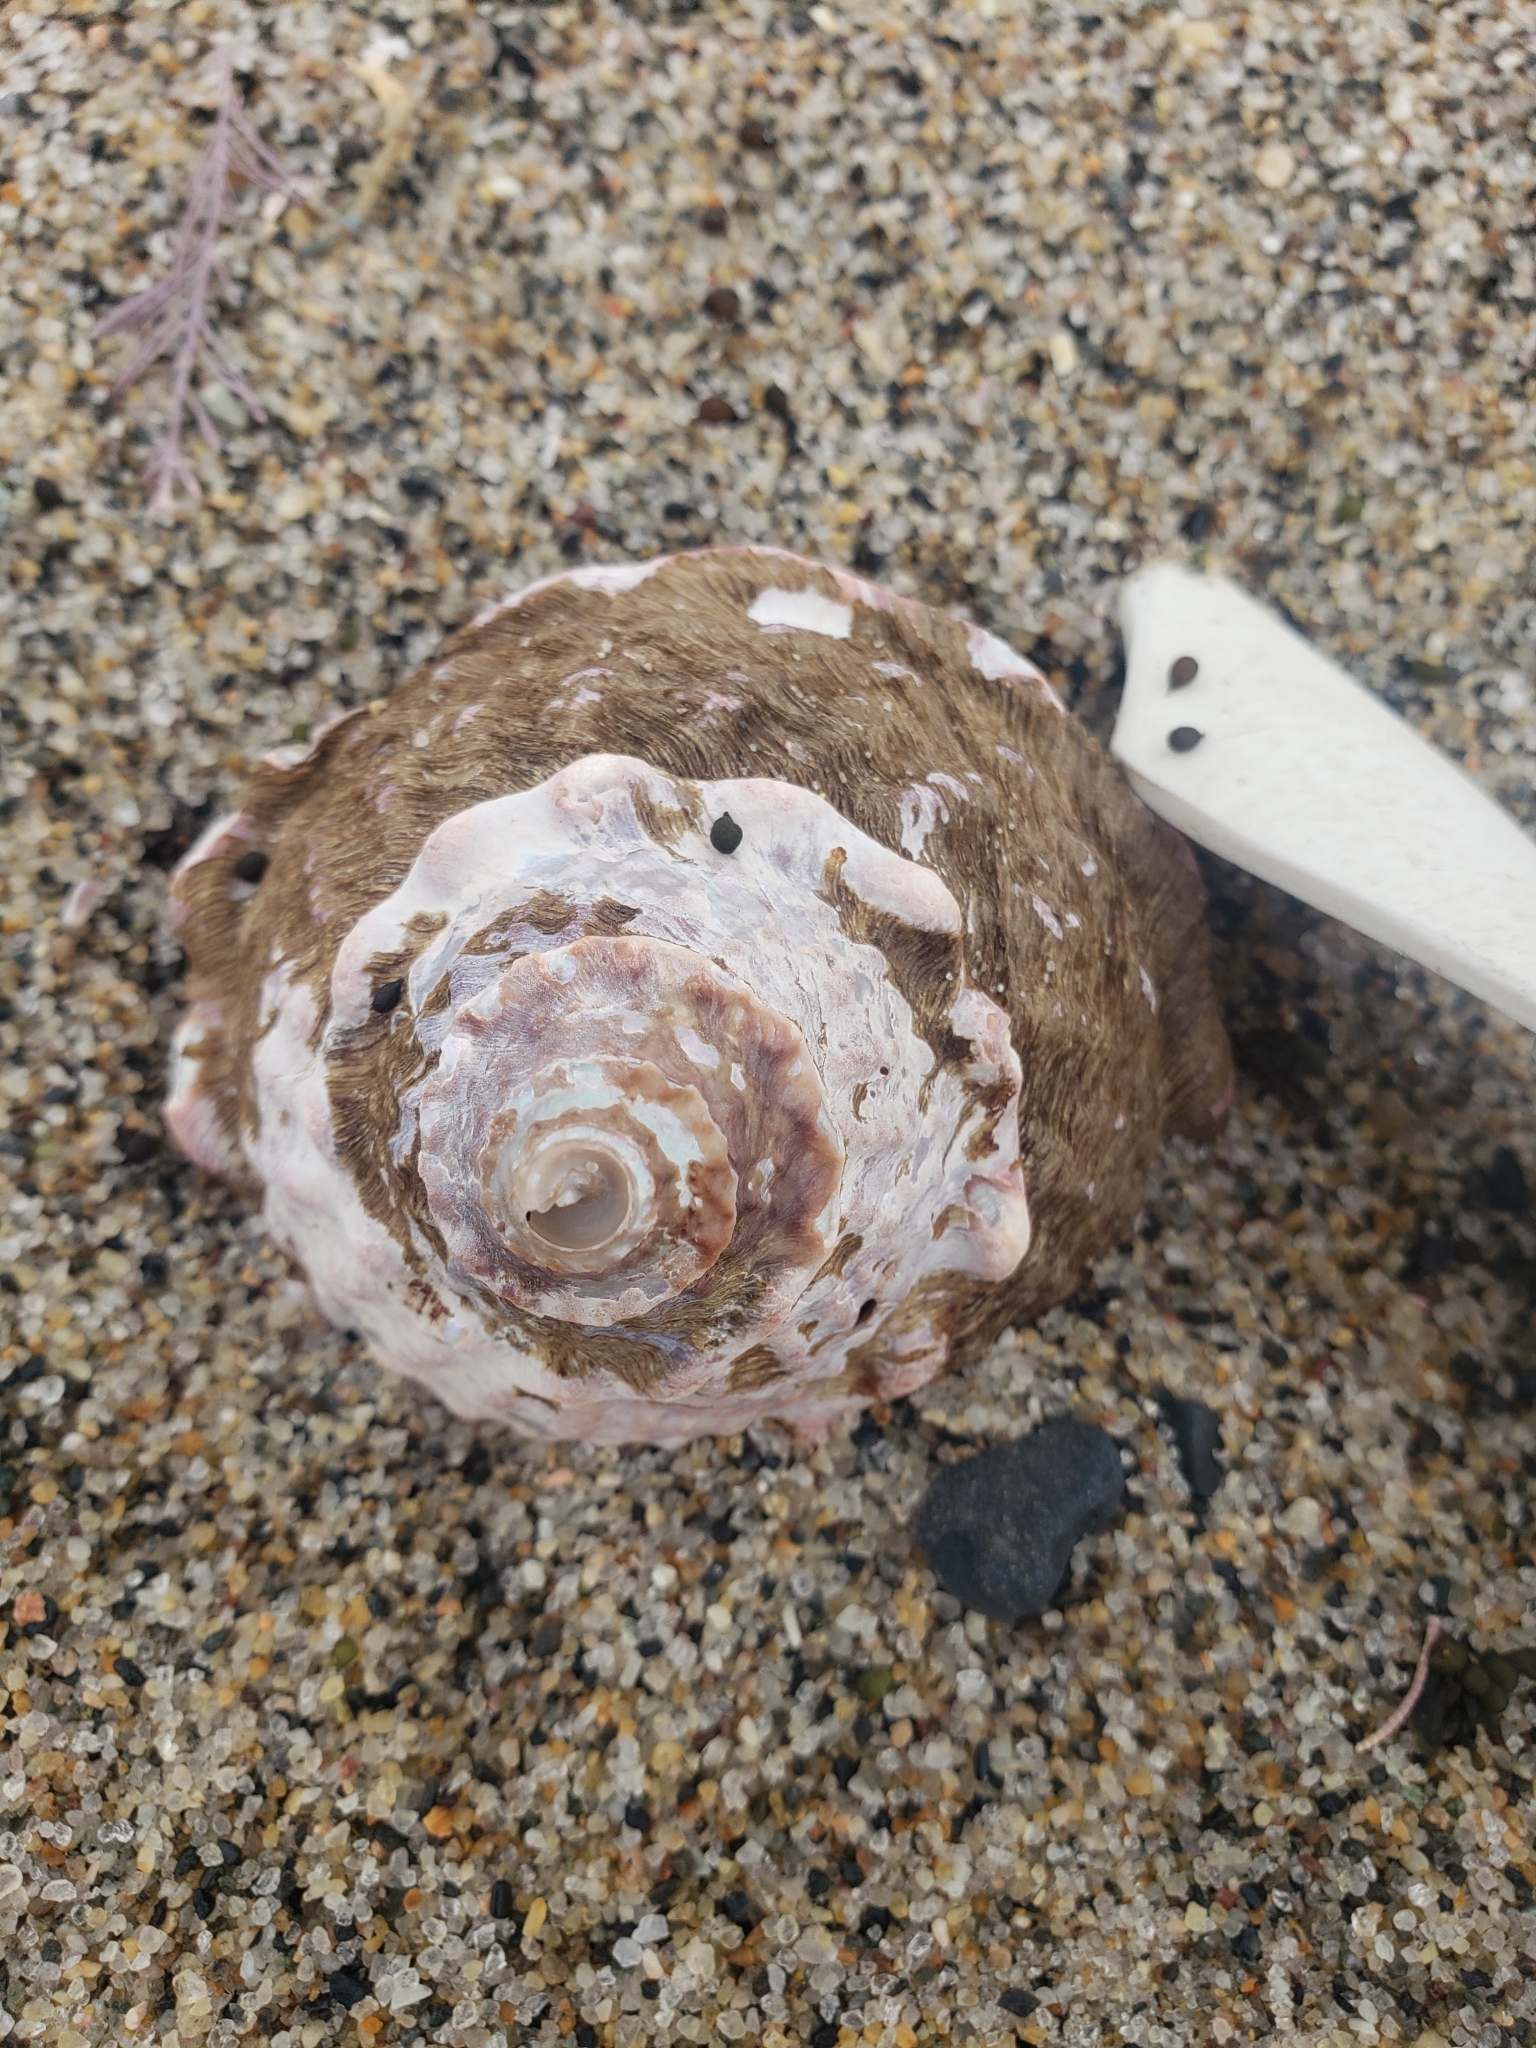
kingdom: Animalia
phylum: Mollusca
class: Gastropoda
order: Trochida
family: Turbinidae
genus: Megastraea
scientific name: Megastraea undosa
